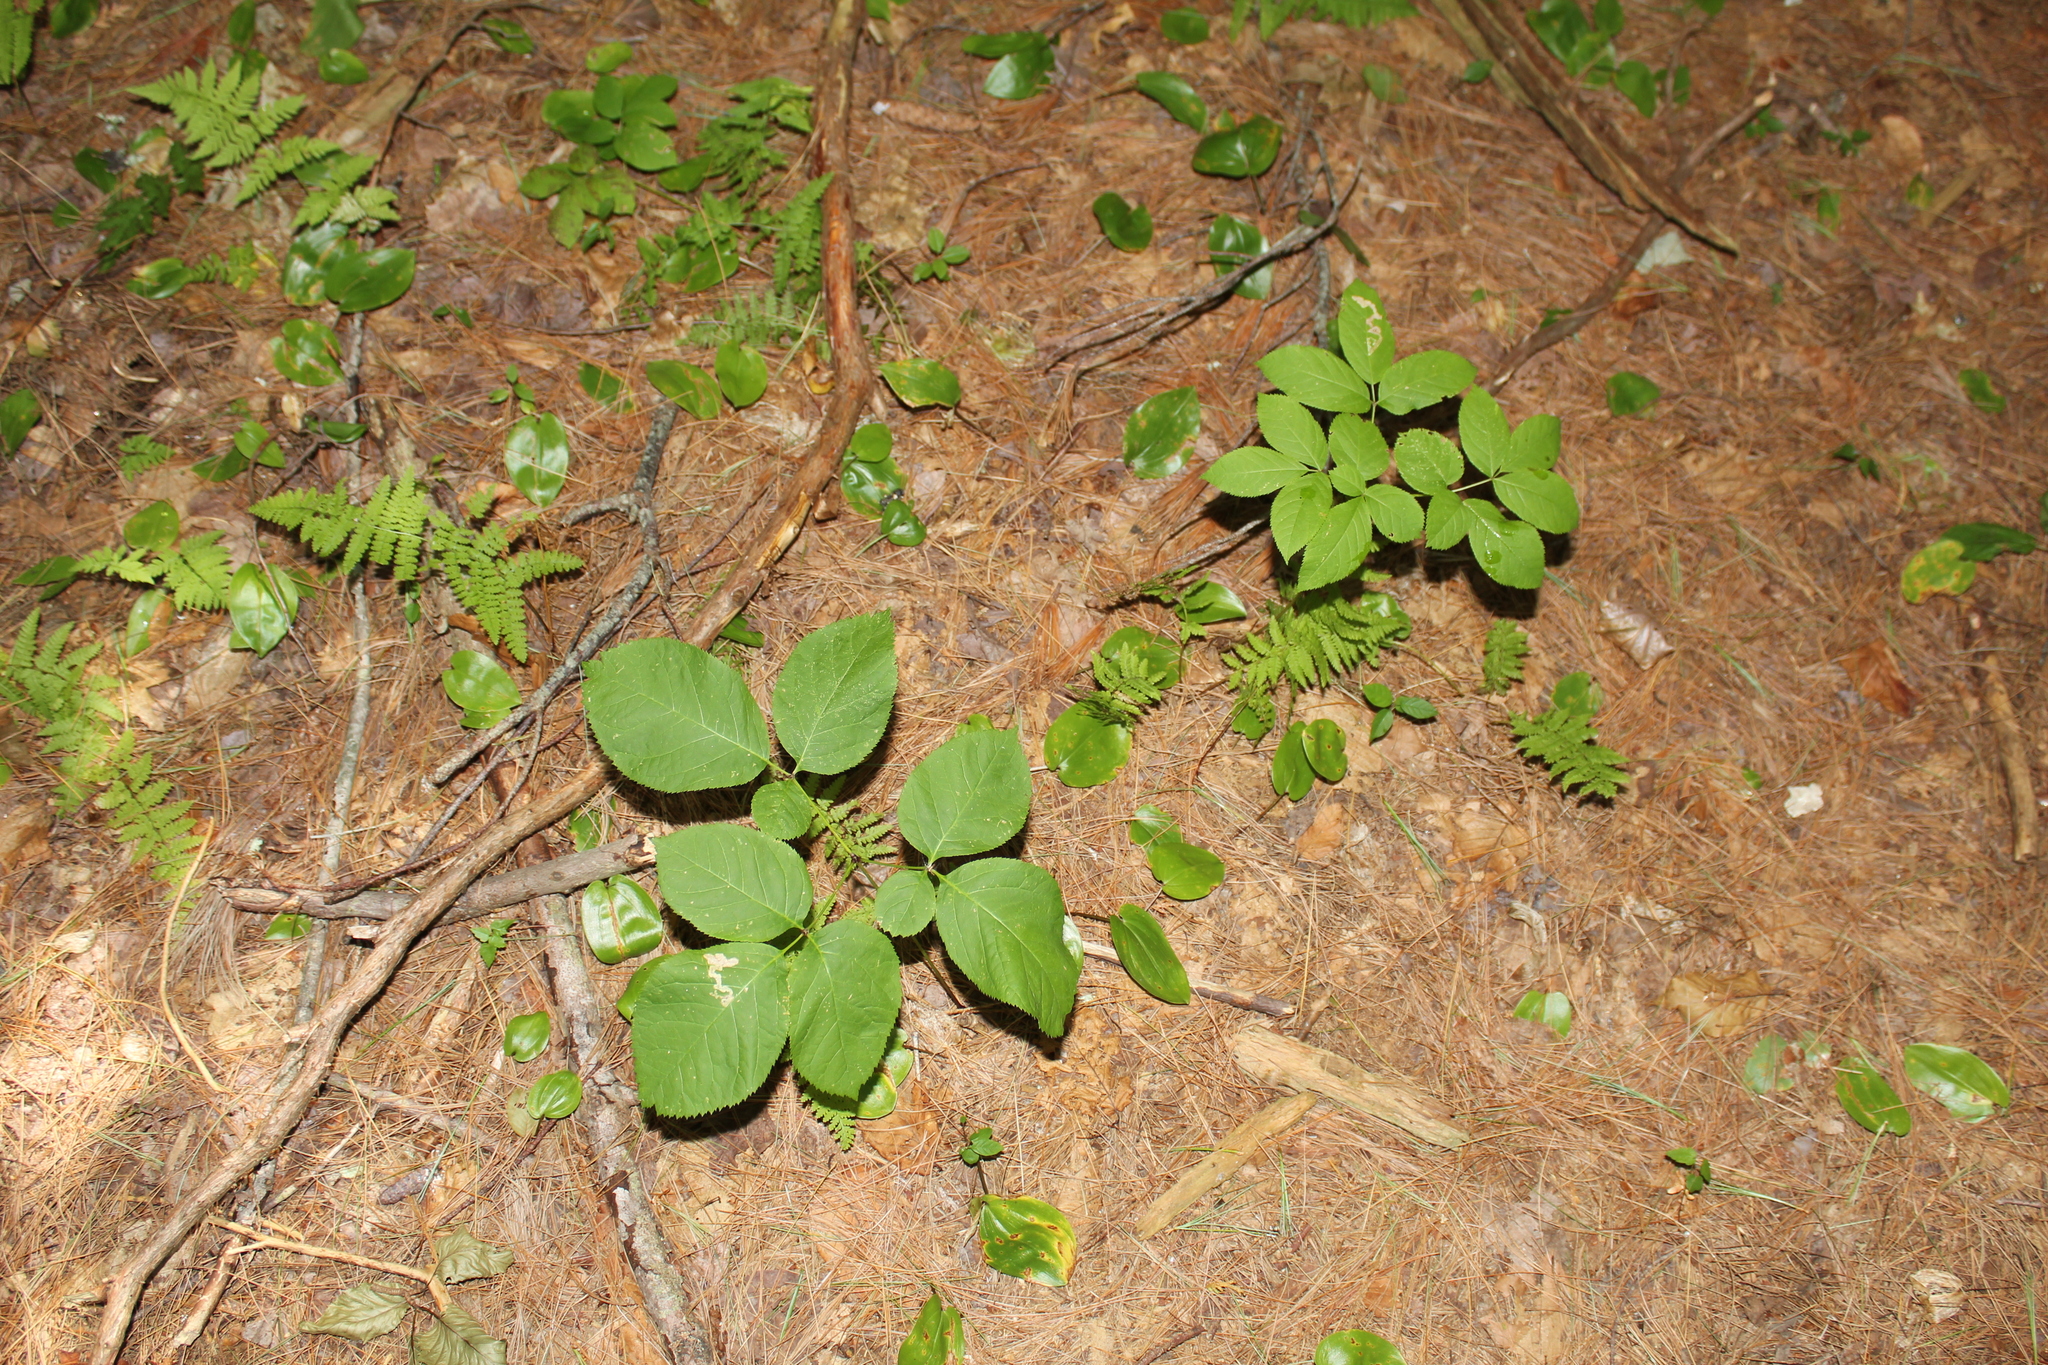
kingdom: Plantae
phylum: Tracheophyta
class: Magnoliopsida
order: Apiales
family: Araliaceae
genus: Aralia
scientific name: Aralia nudicaulis
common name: Wild sarsaparilla
